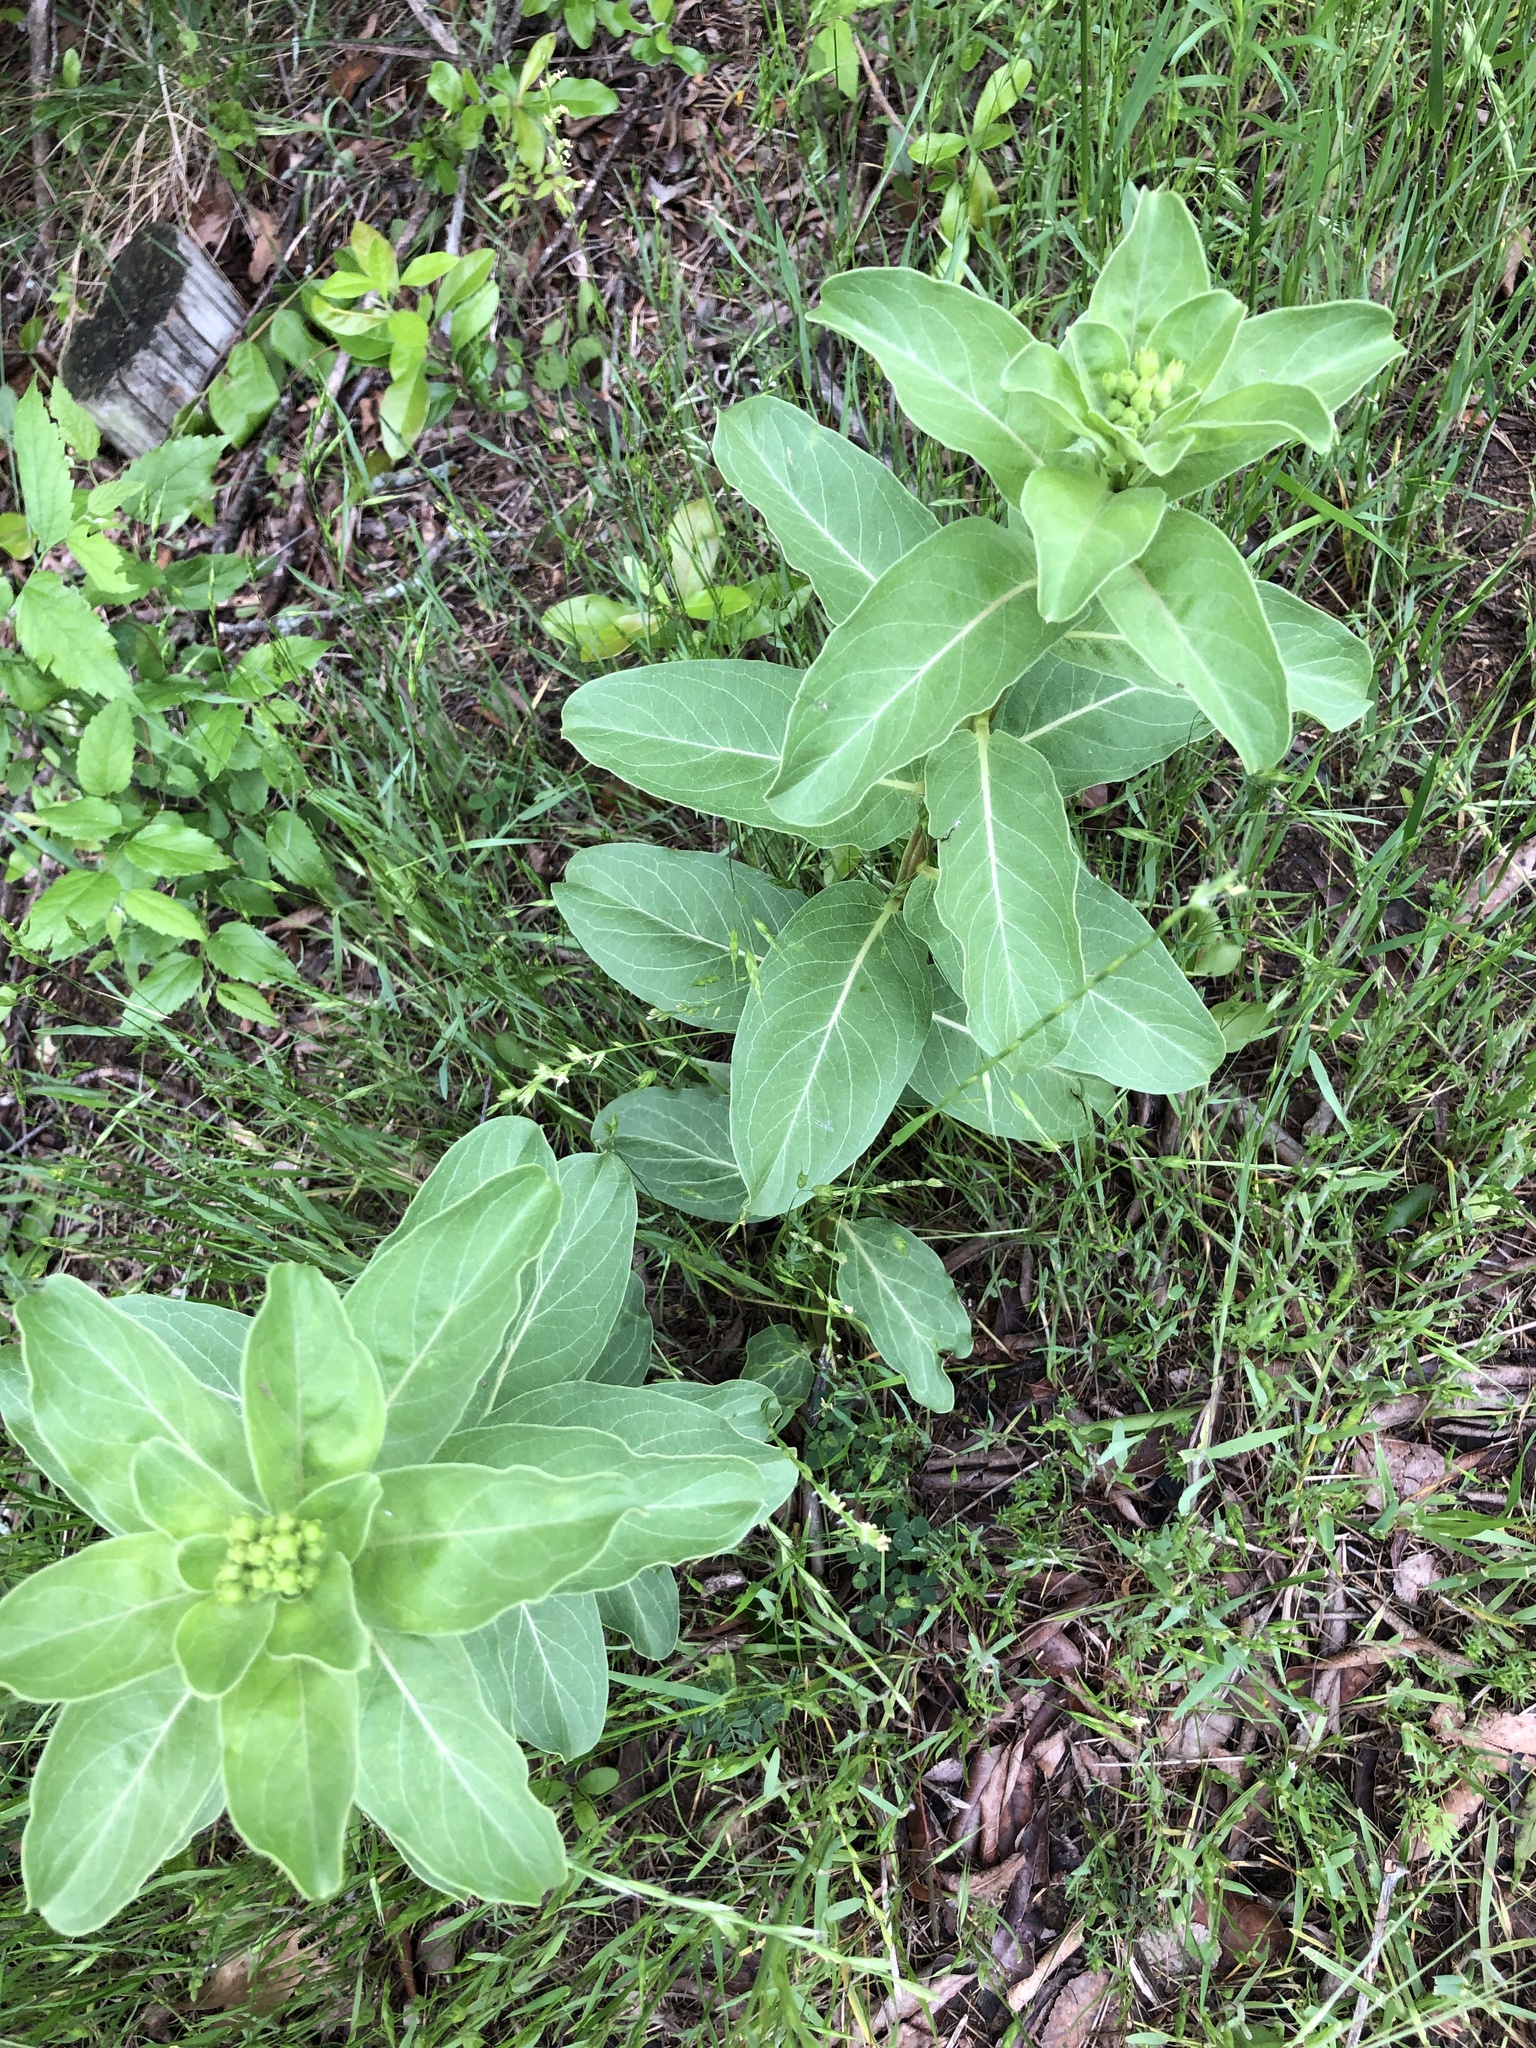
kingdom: Plantae
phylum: Tracheophyta
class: Magnoliopsida
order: Gentianales
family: Apocynaceae
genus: Asclepias
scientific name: Asclepias viridis
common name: Antelope-horns
